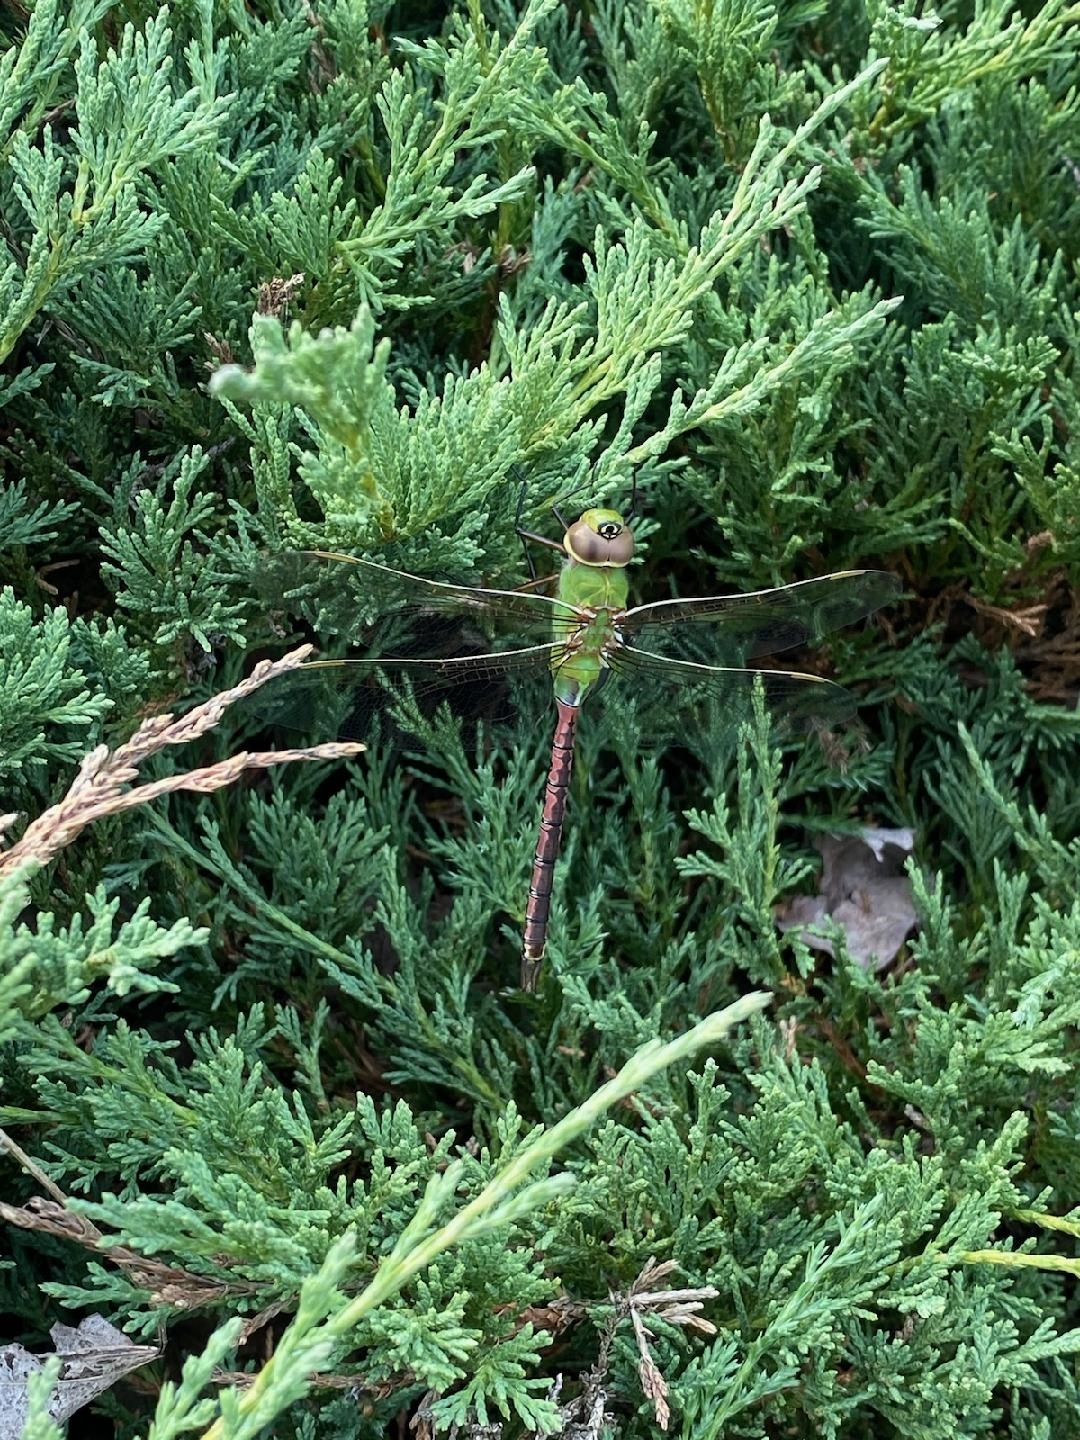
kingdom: Animalia
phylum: Arthropoda
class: Insecta
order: Odonata
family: Aeshnidae
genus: Anax
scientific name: Anax junius
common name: Common green darner
